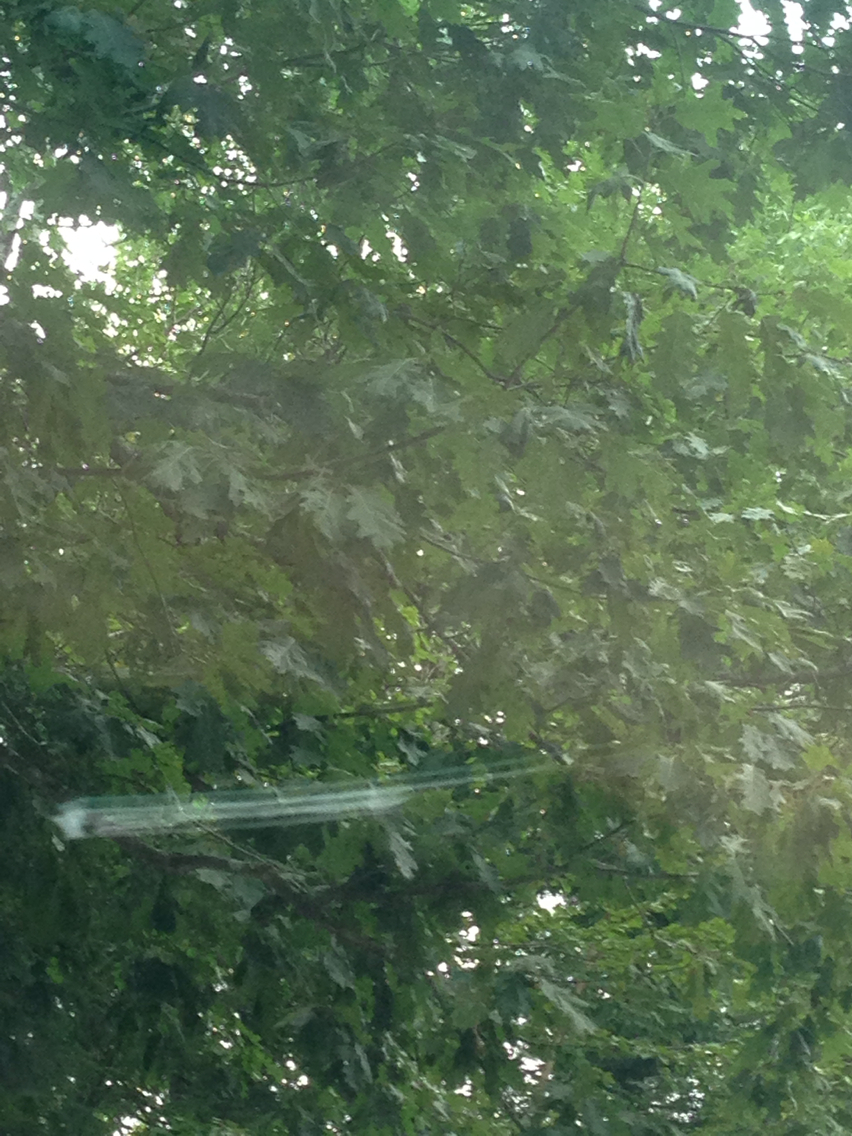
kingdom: Plantae
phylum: Tracheophyta
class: Magnoliopsida
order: Fagales
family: Fagaceae
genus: Quercus
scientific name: Quercus rubra
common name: Red oak
